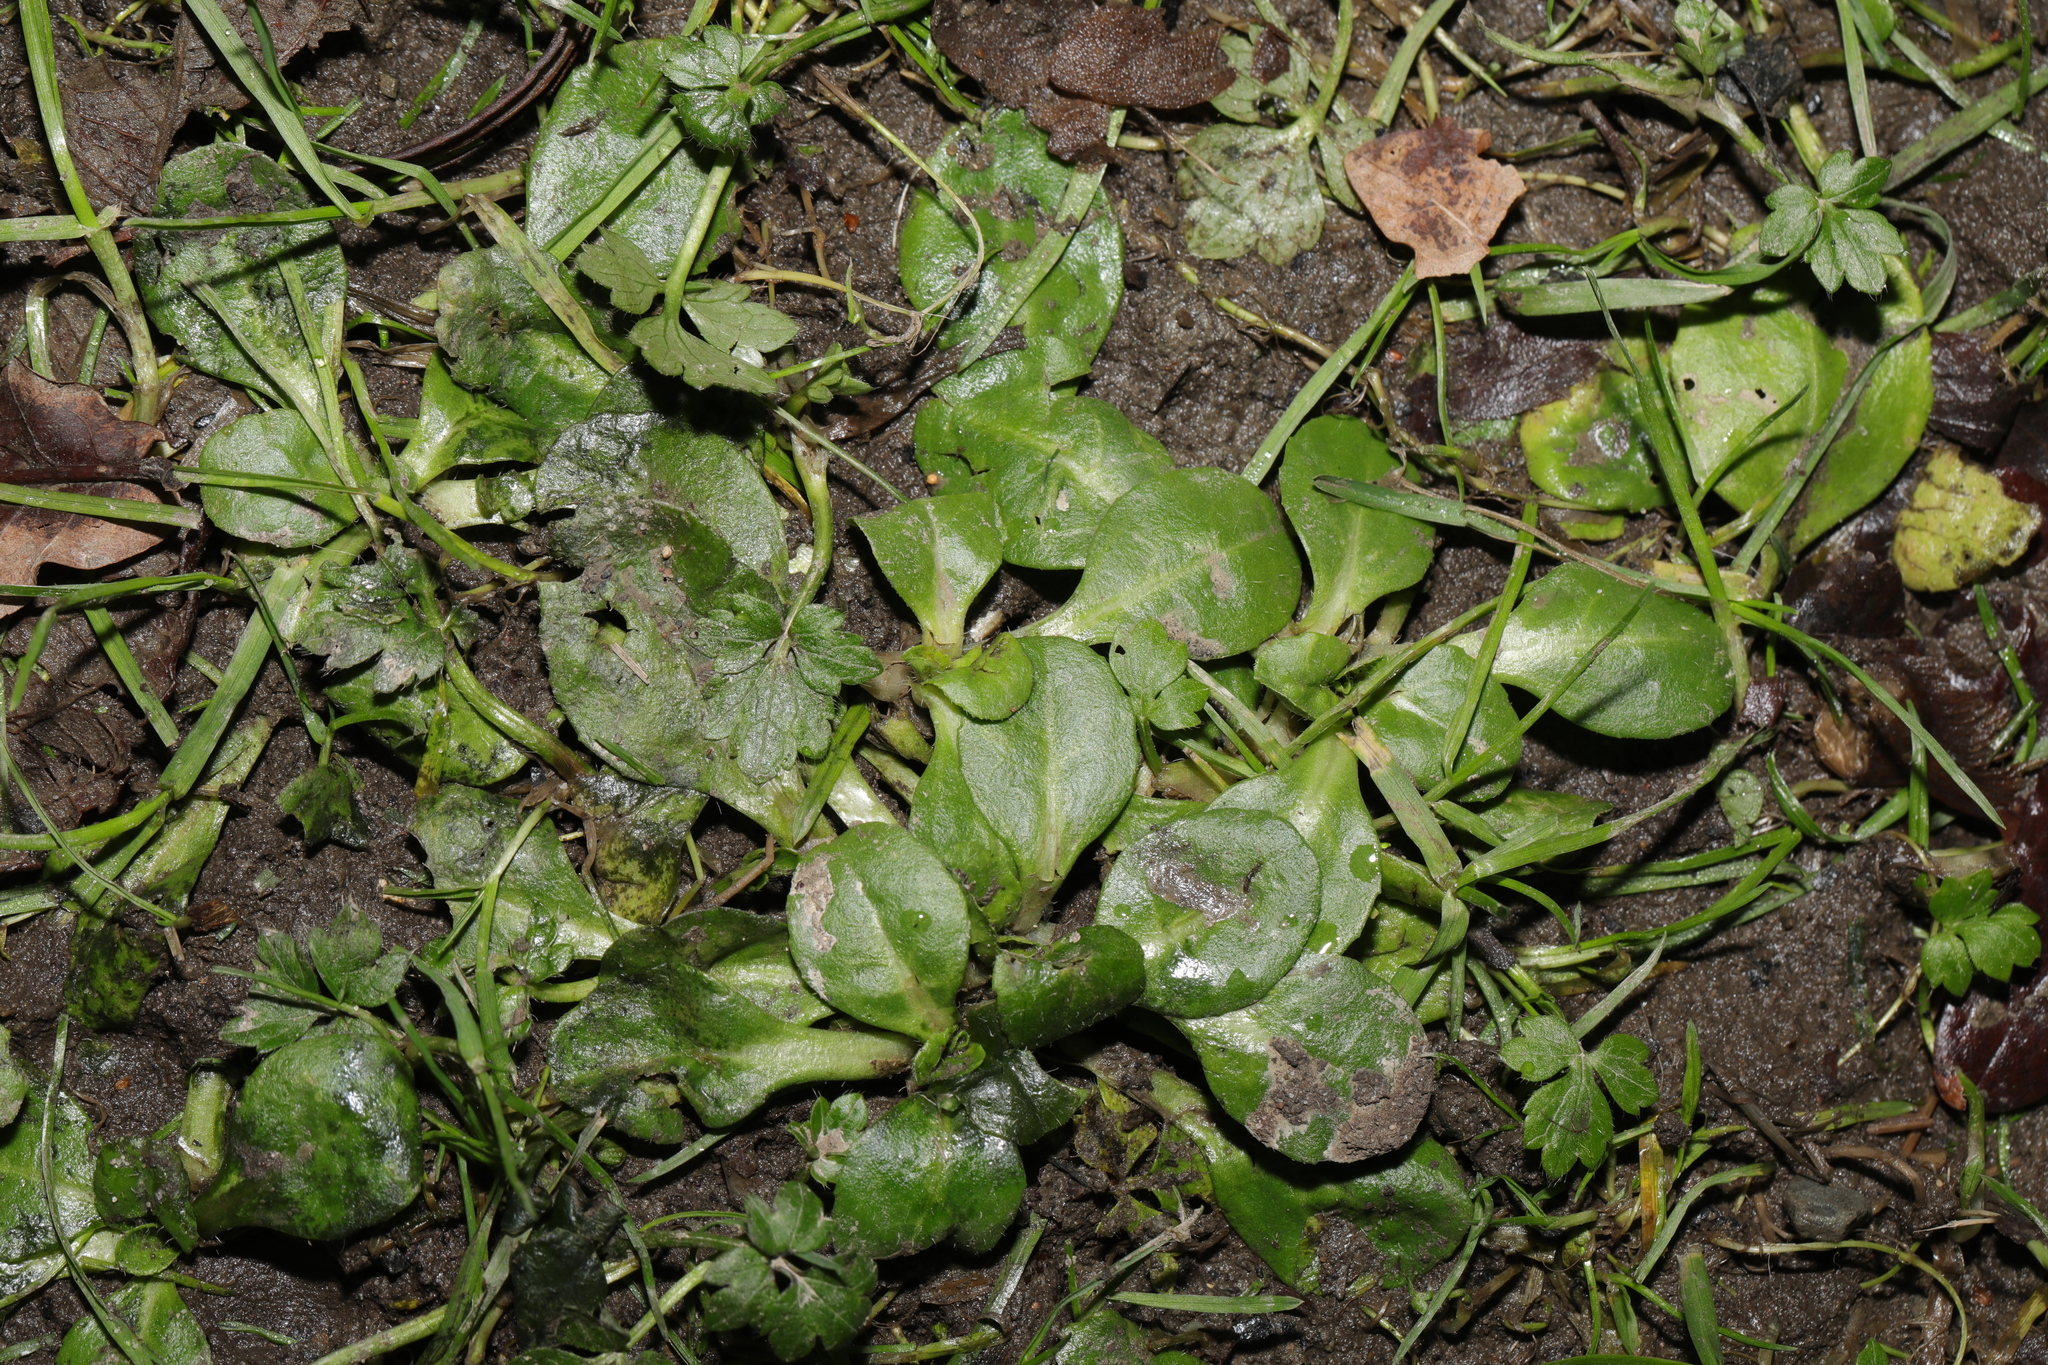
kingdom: Plantae
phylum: Tracheophyta
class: Magnoliopsida
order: Asterales
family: Asteraceae
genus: Bellis
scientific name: Bellis perennis
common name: Lawndaisy
